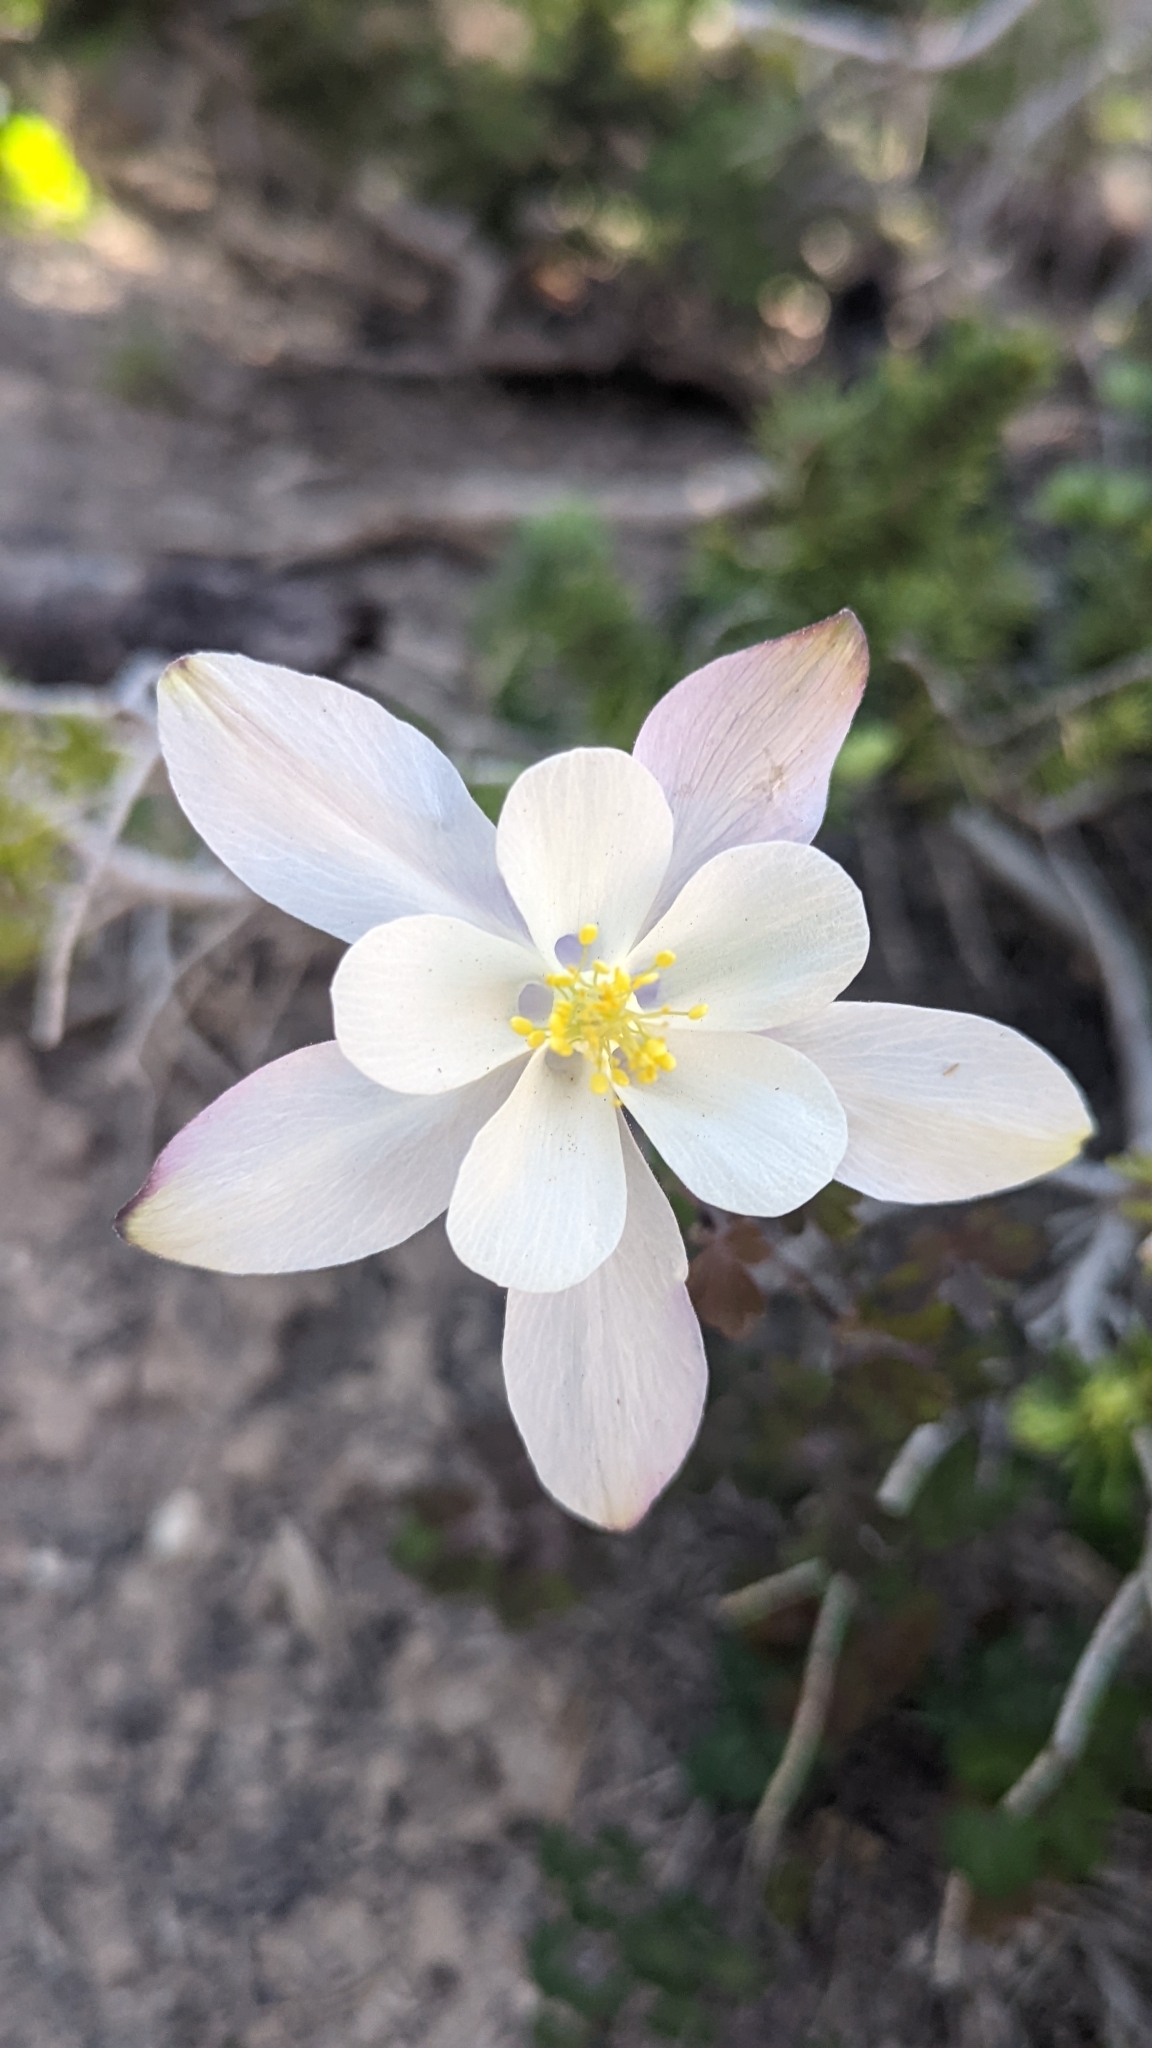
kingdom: Plantae
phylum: Tracheophyta
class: Magnoliopsida
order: Ranunculales
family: Ranunculaceae
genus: Aquilegia
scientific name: Aquilegia coerulea
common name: Rocky mountain columbine
